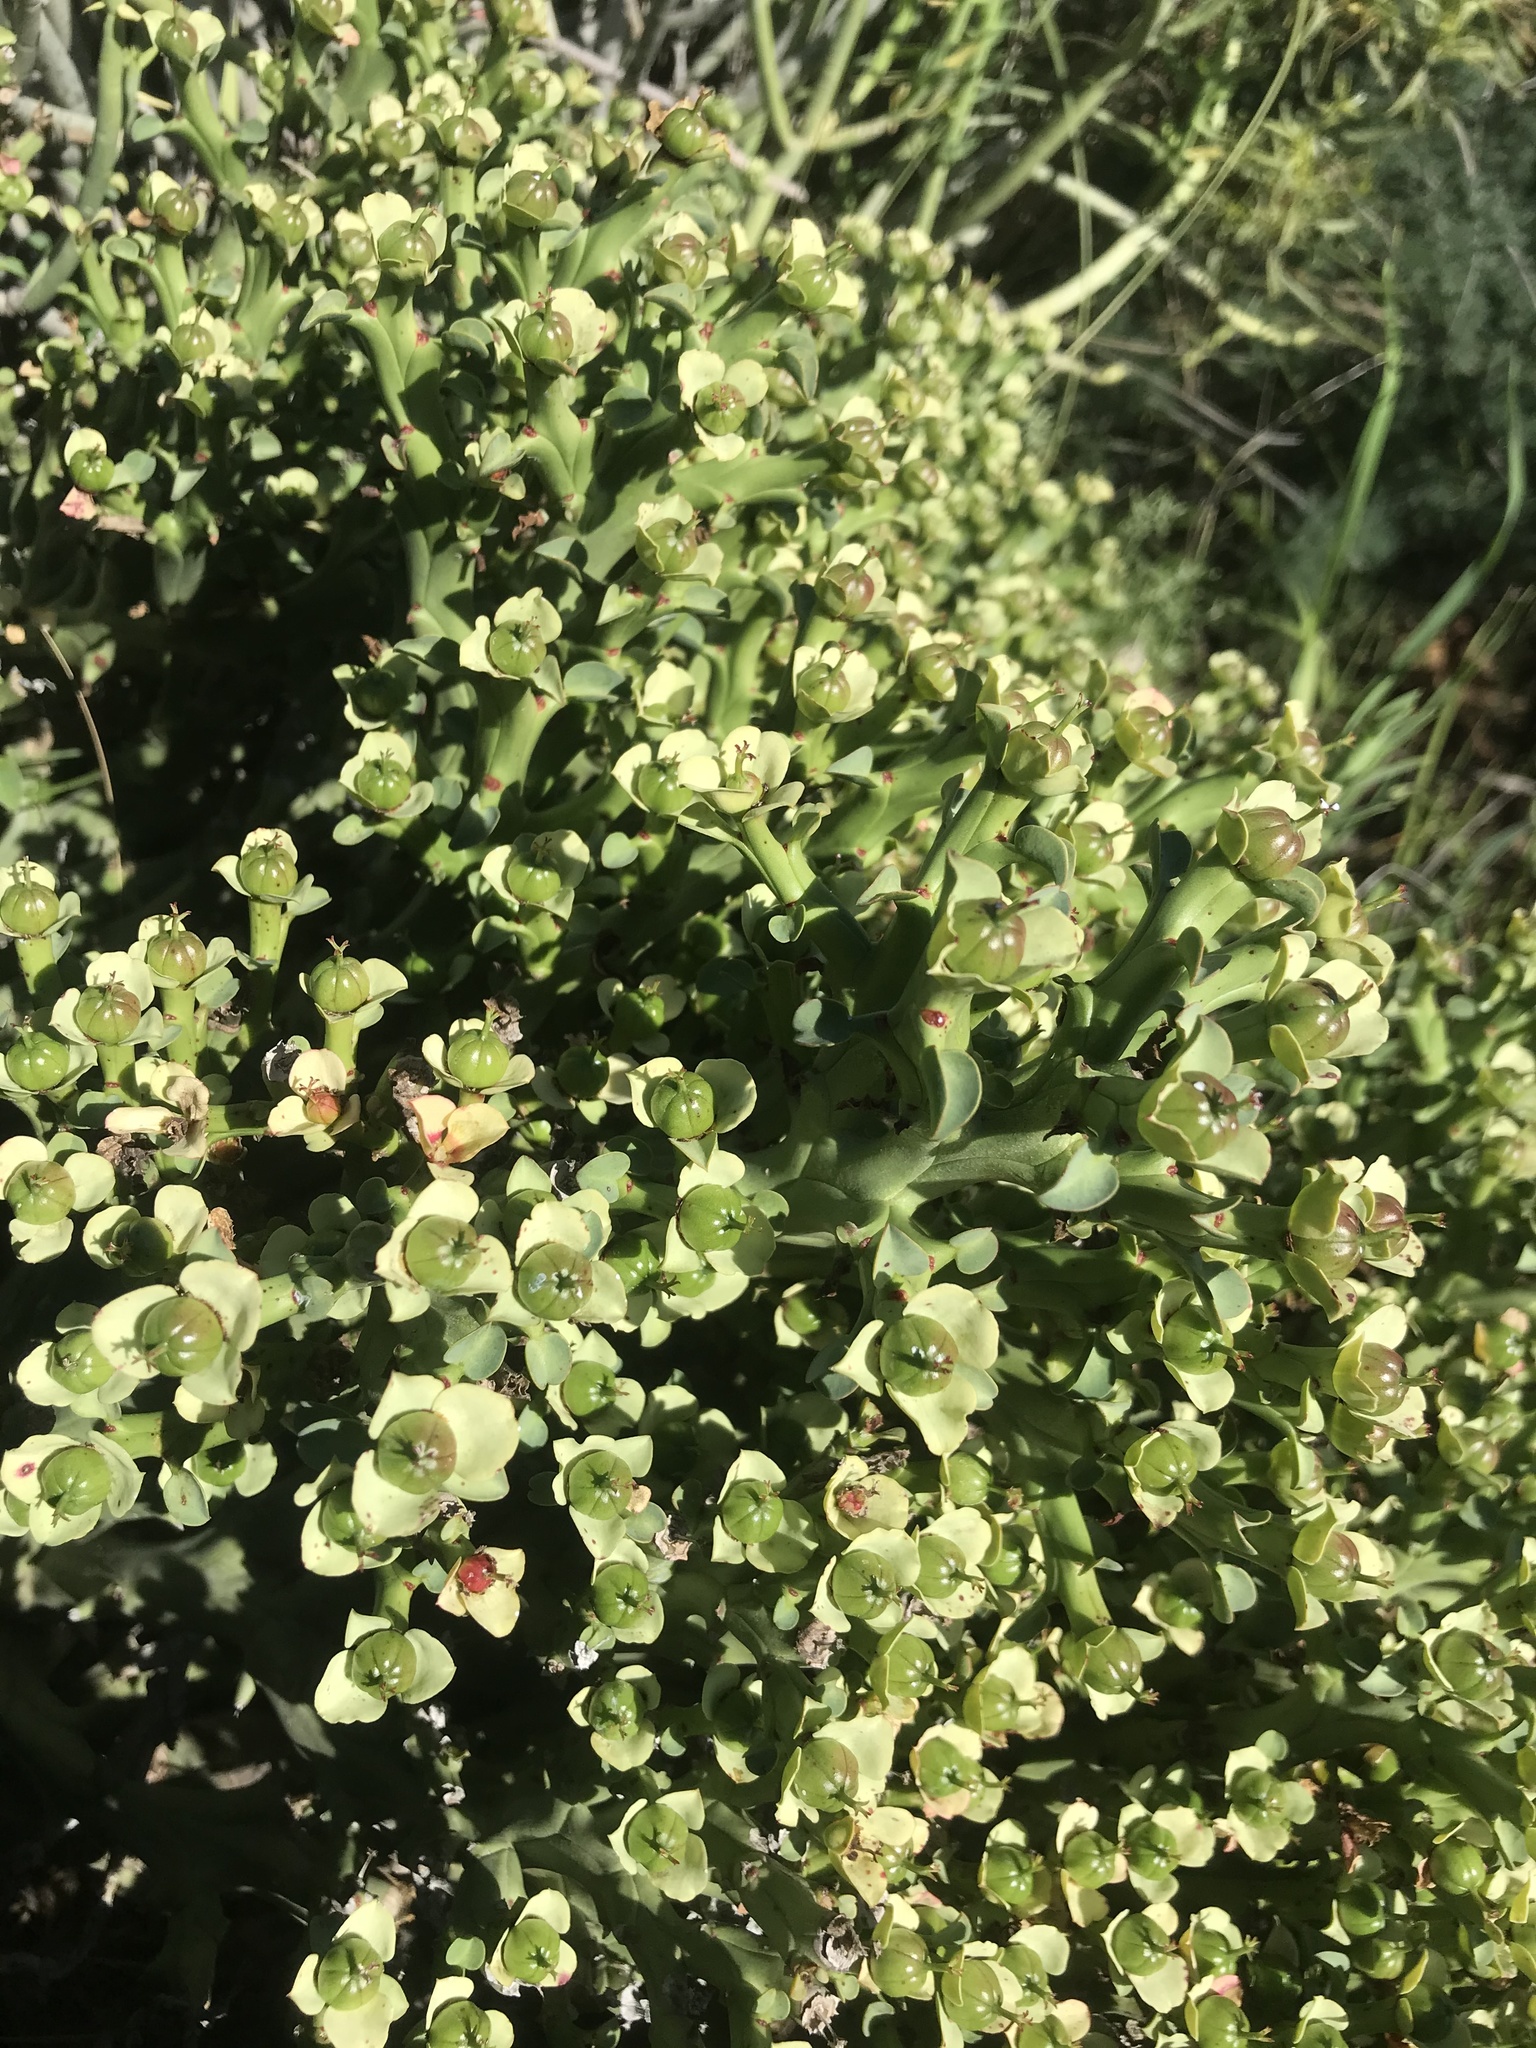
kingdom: Plantae
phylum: Tracheophyta
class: Magnoliopsida
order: Malpighiales
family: Euphorbiaceae
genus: Euphorbia
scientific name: Euphorbia hamata
